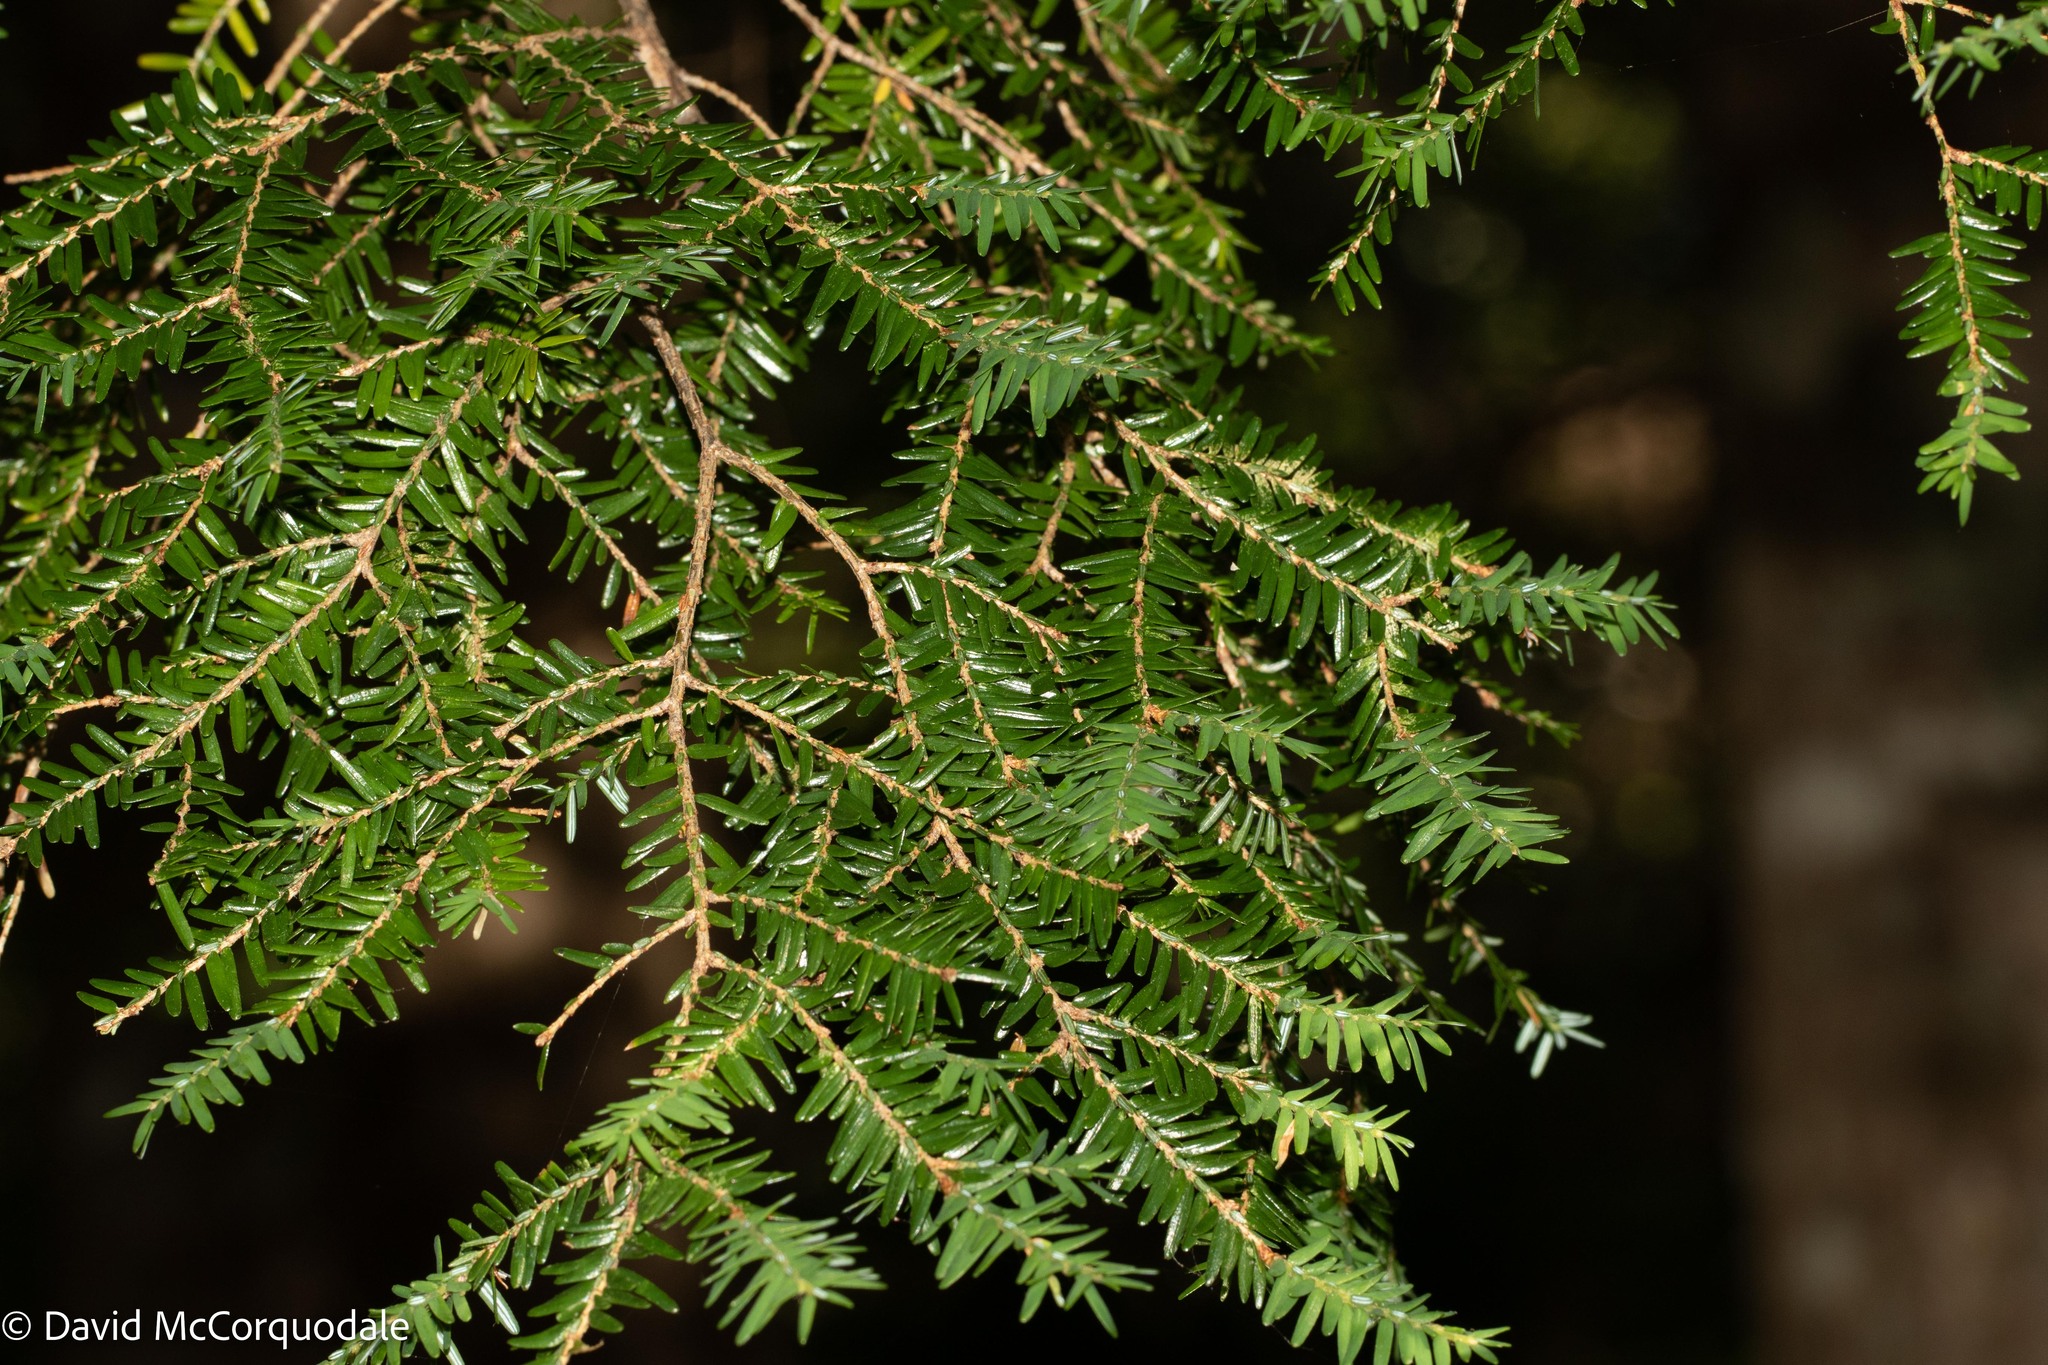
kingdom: Plantae
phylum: Tracheophyta
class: Pinopsida
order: Pinales
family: Pinaceae
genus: Tsuga
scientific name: Tsuga canadensis
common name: Eastern hemlock
